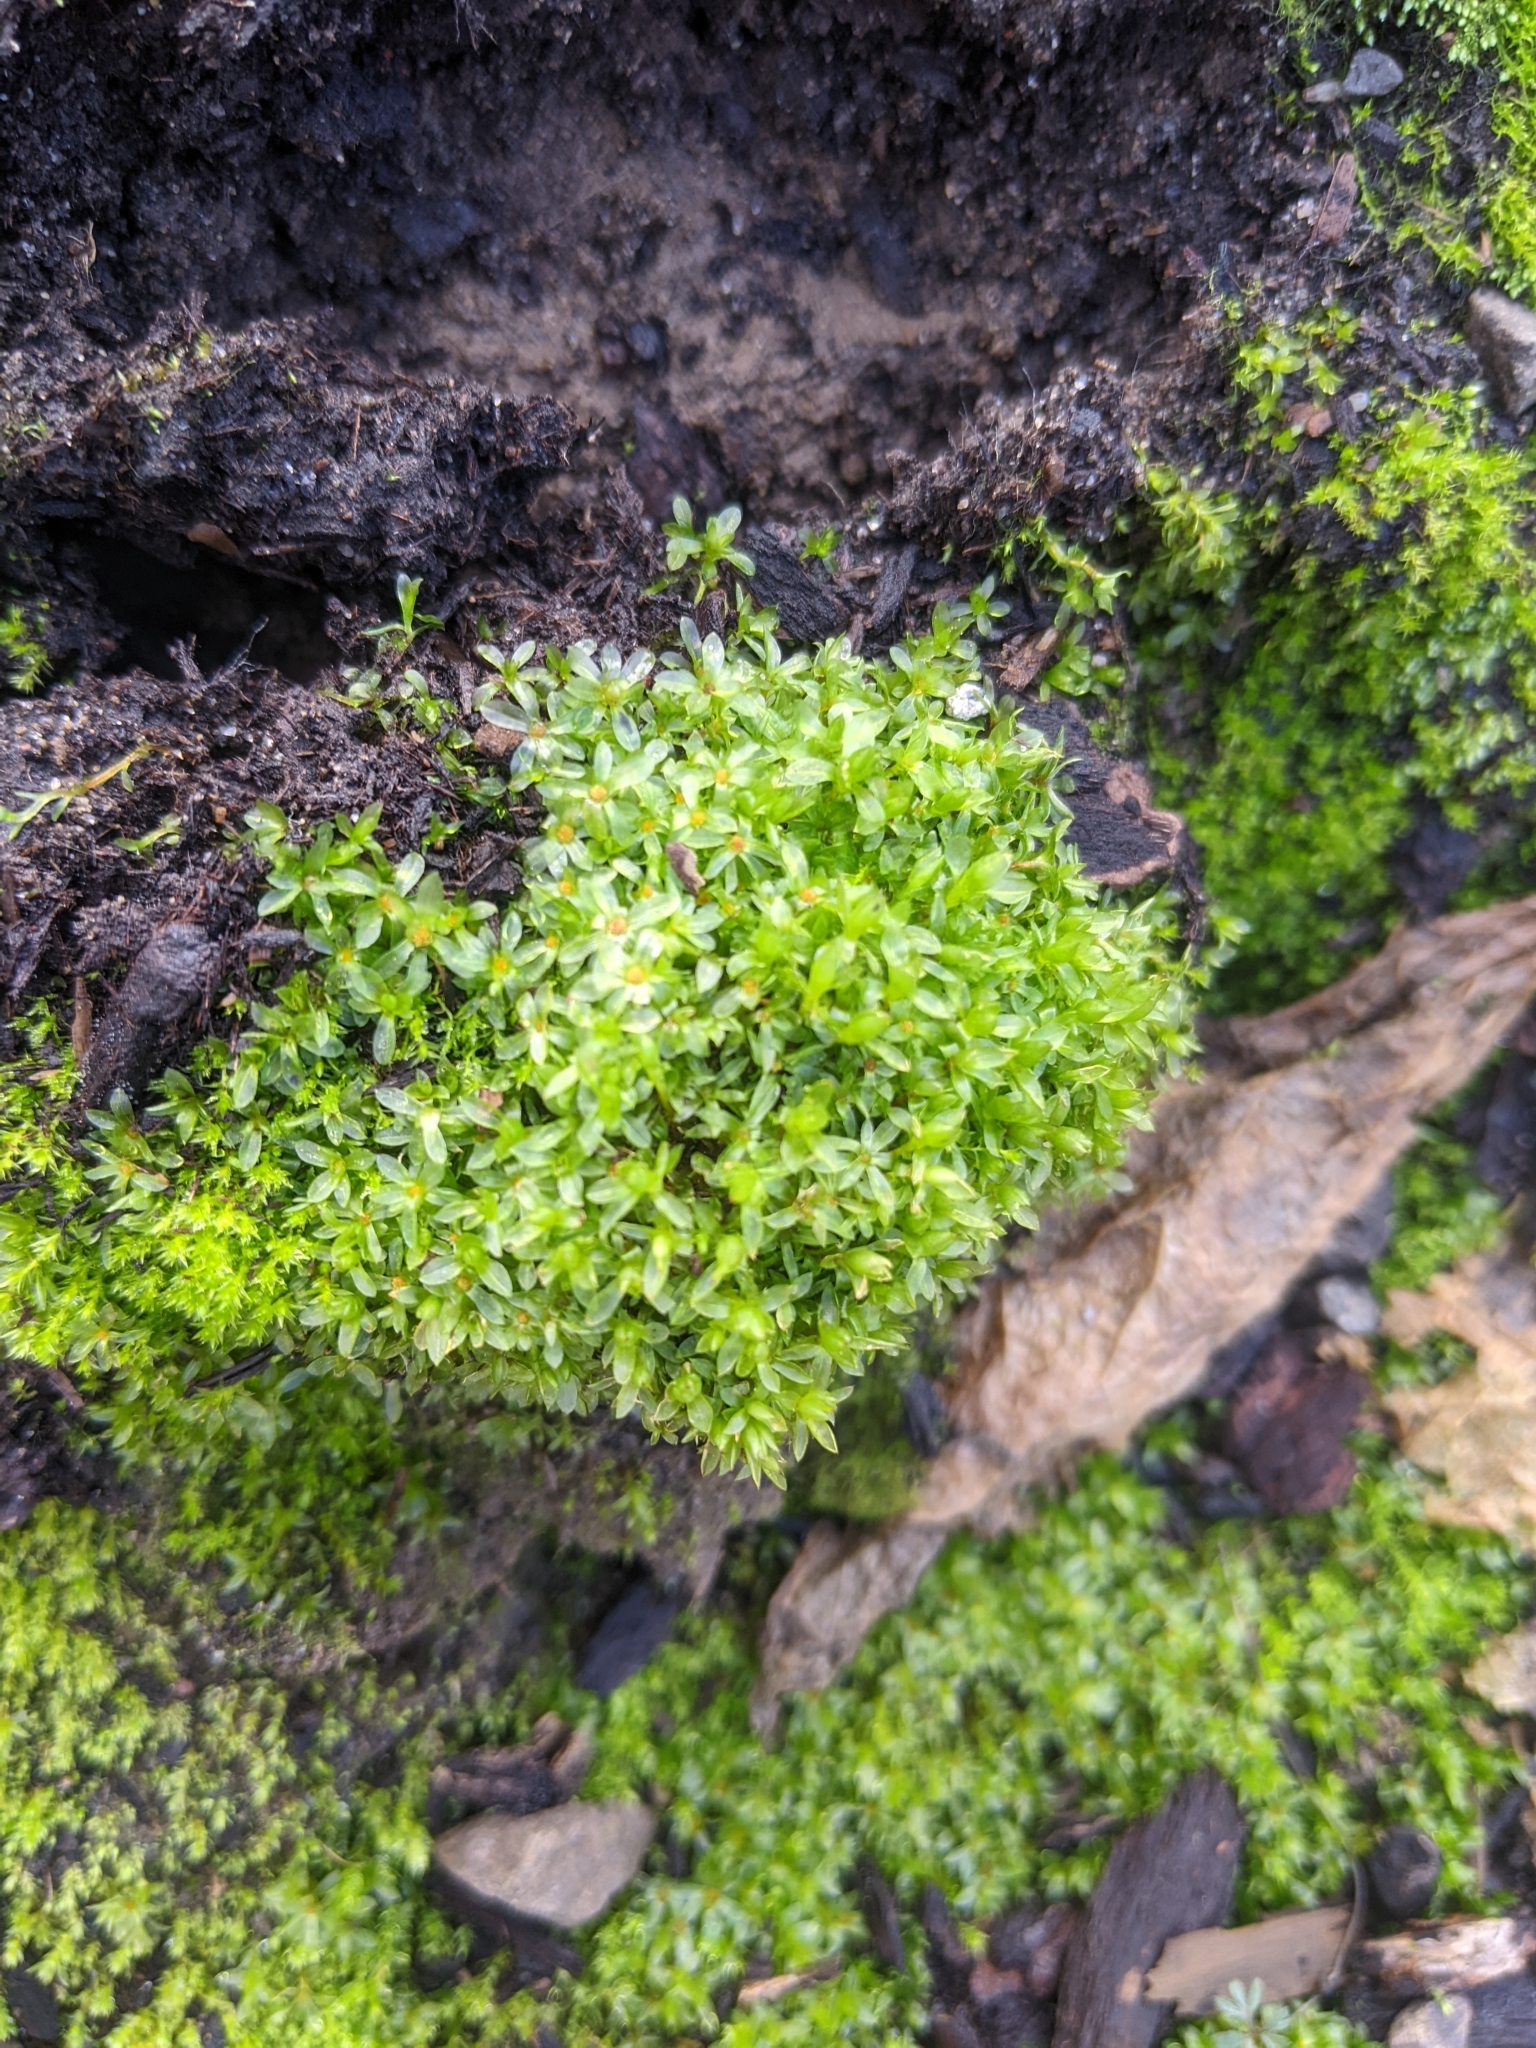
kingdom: Plantae
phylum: Bryophyta
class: Bryopsida
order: Bryales
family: Mniaceae
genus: Plagiomnium
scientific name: Plagiomnium cuspidatum
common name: Woodsy leafy moss
